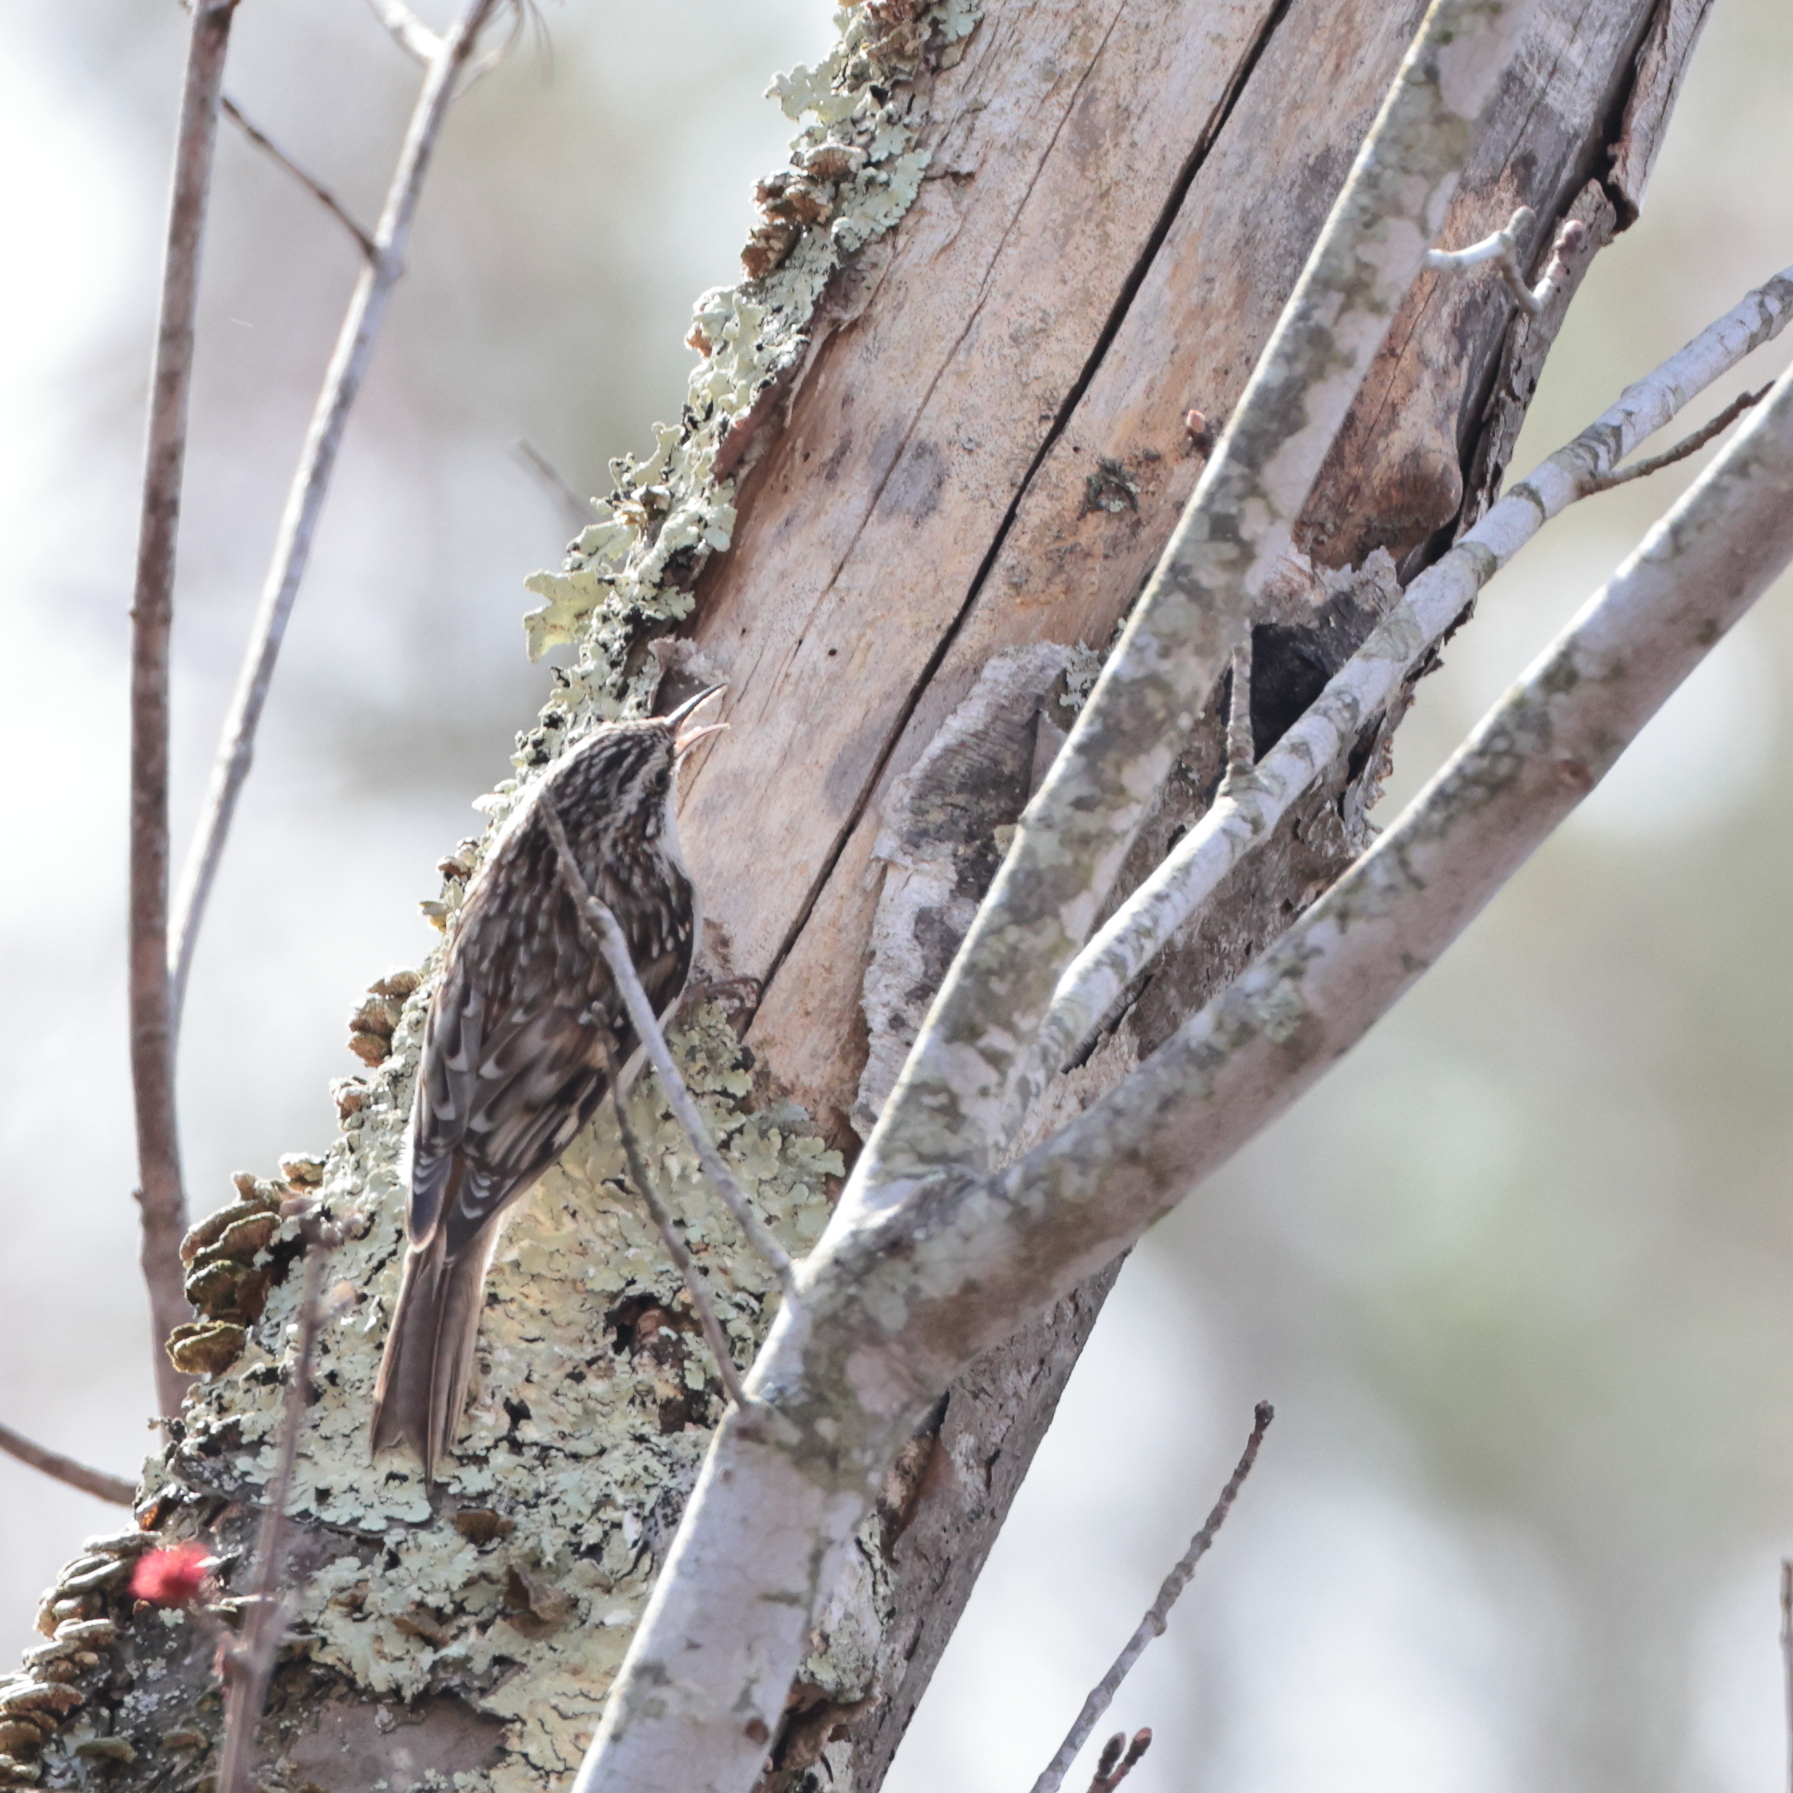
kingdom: Animalia
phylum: Chordata
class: Aves
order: Passeriformes
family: Certhiidae
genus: Certhia
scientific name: Certhia americana
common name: Brown creeper
